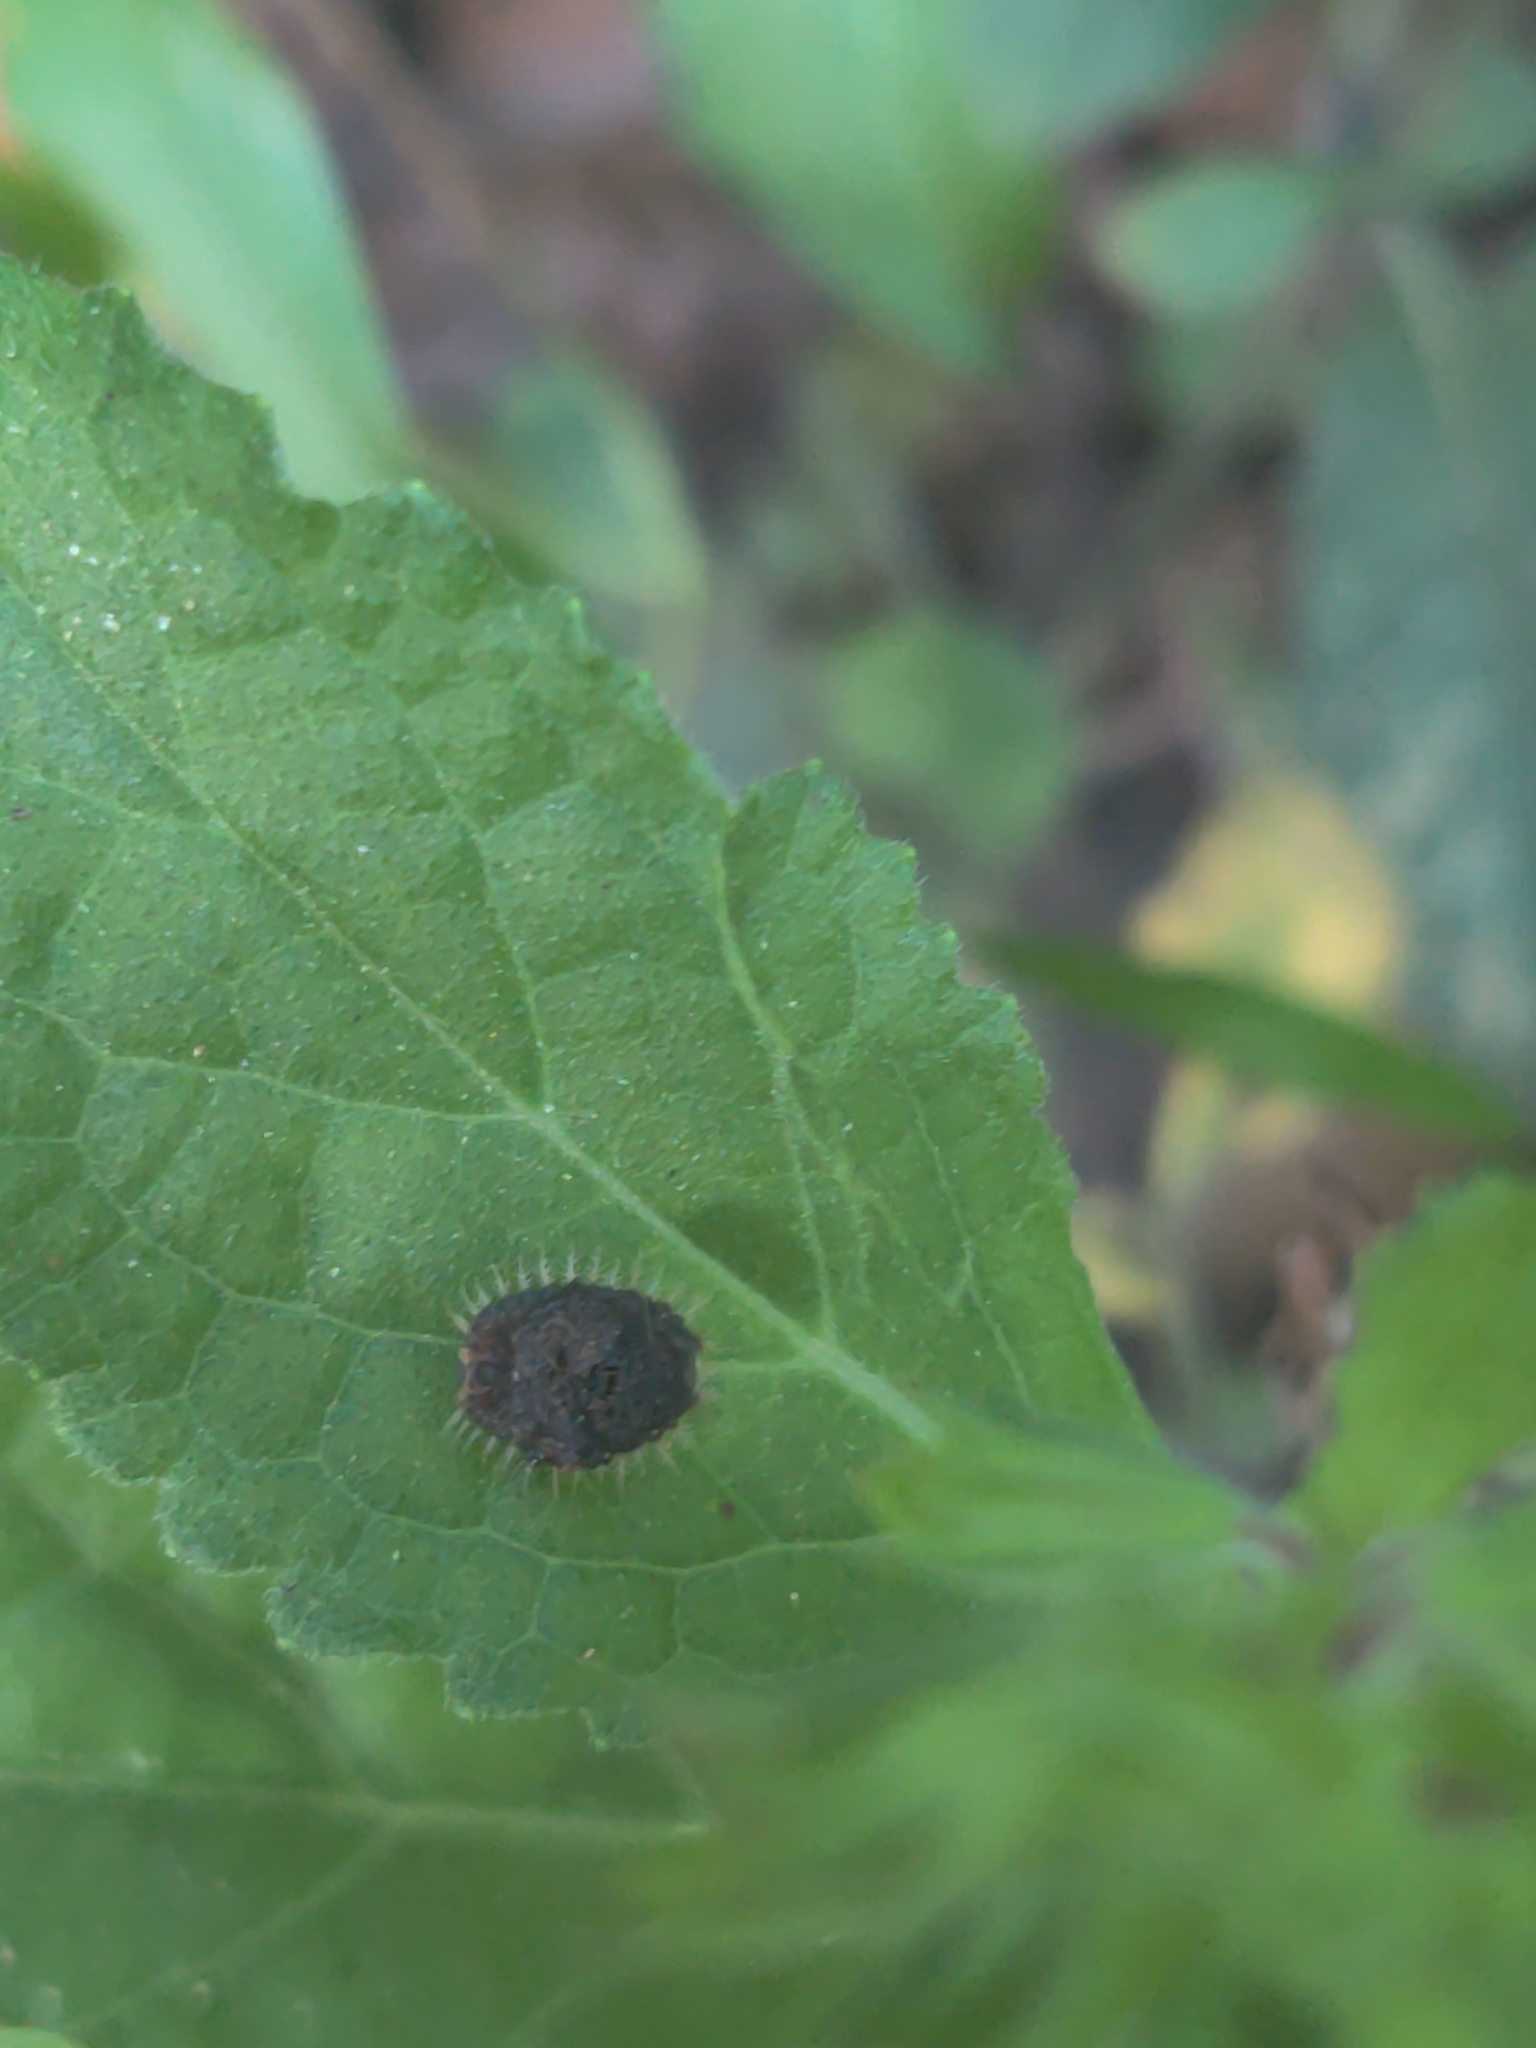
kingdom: Animalia
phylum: Arthropoda
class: Insecta
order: Coleoptera
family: Chrysomelidae
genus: Charidotella
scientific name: Charidotella sexpunctata
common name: Golden tortoise beetle
